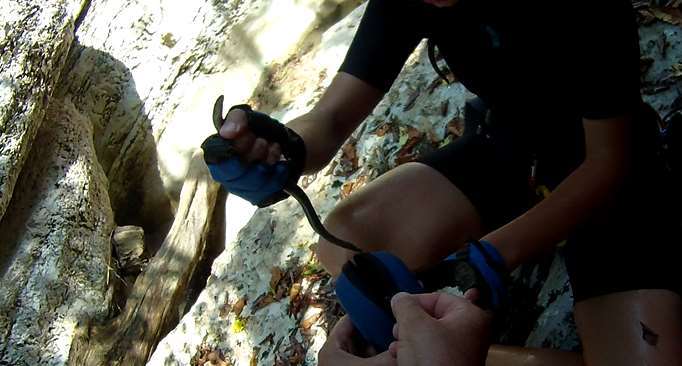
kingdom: Animalia
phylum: Chordata
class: Squamata
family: Anguidae
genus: Anguis
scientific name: Anguis colchica
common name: Slow worm
